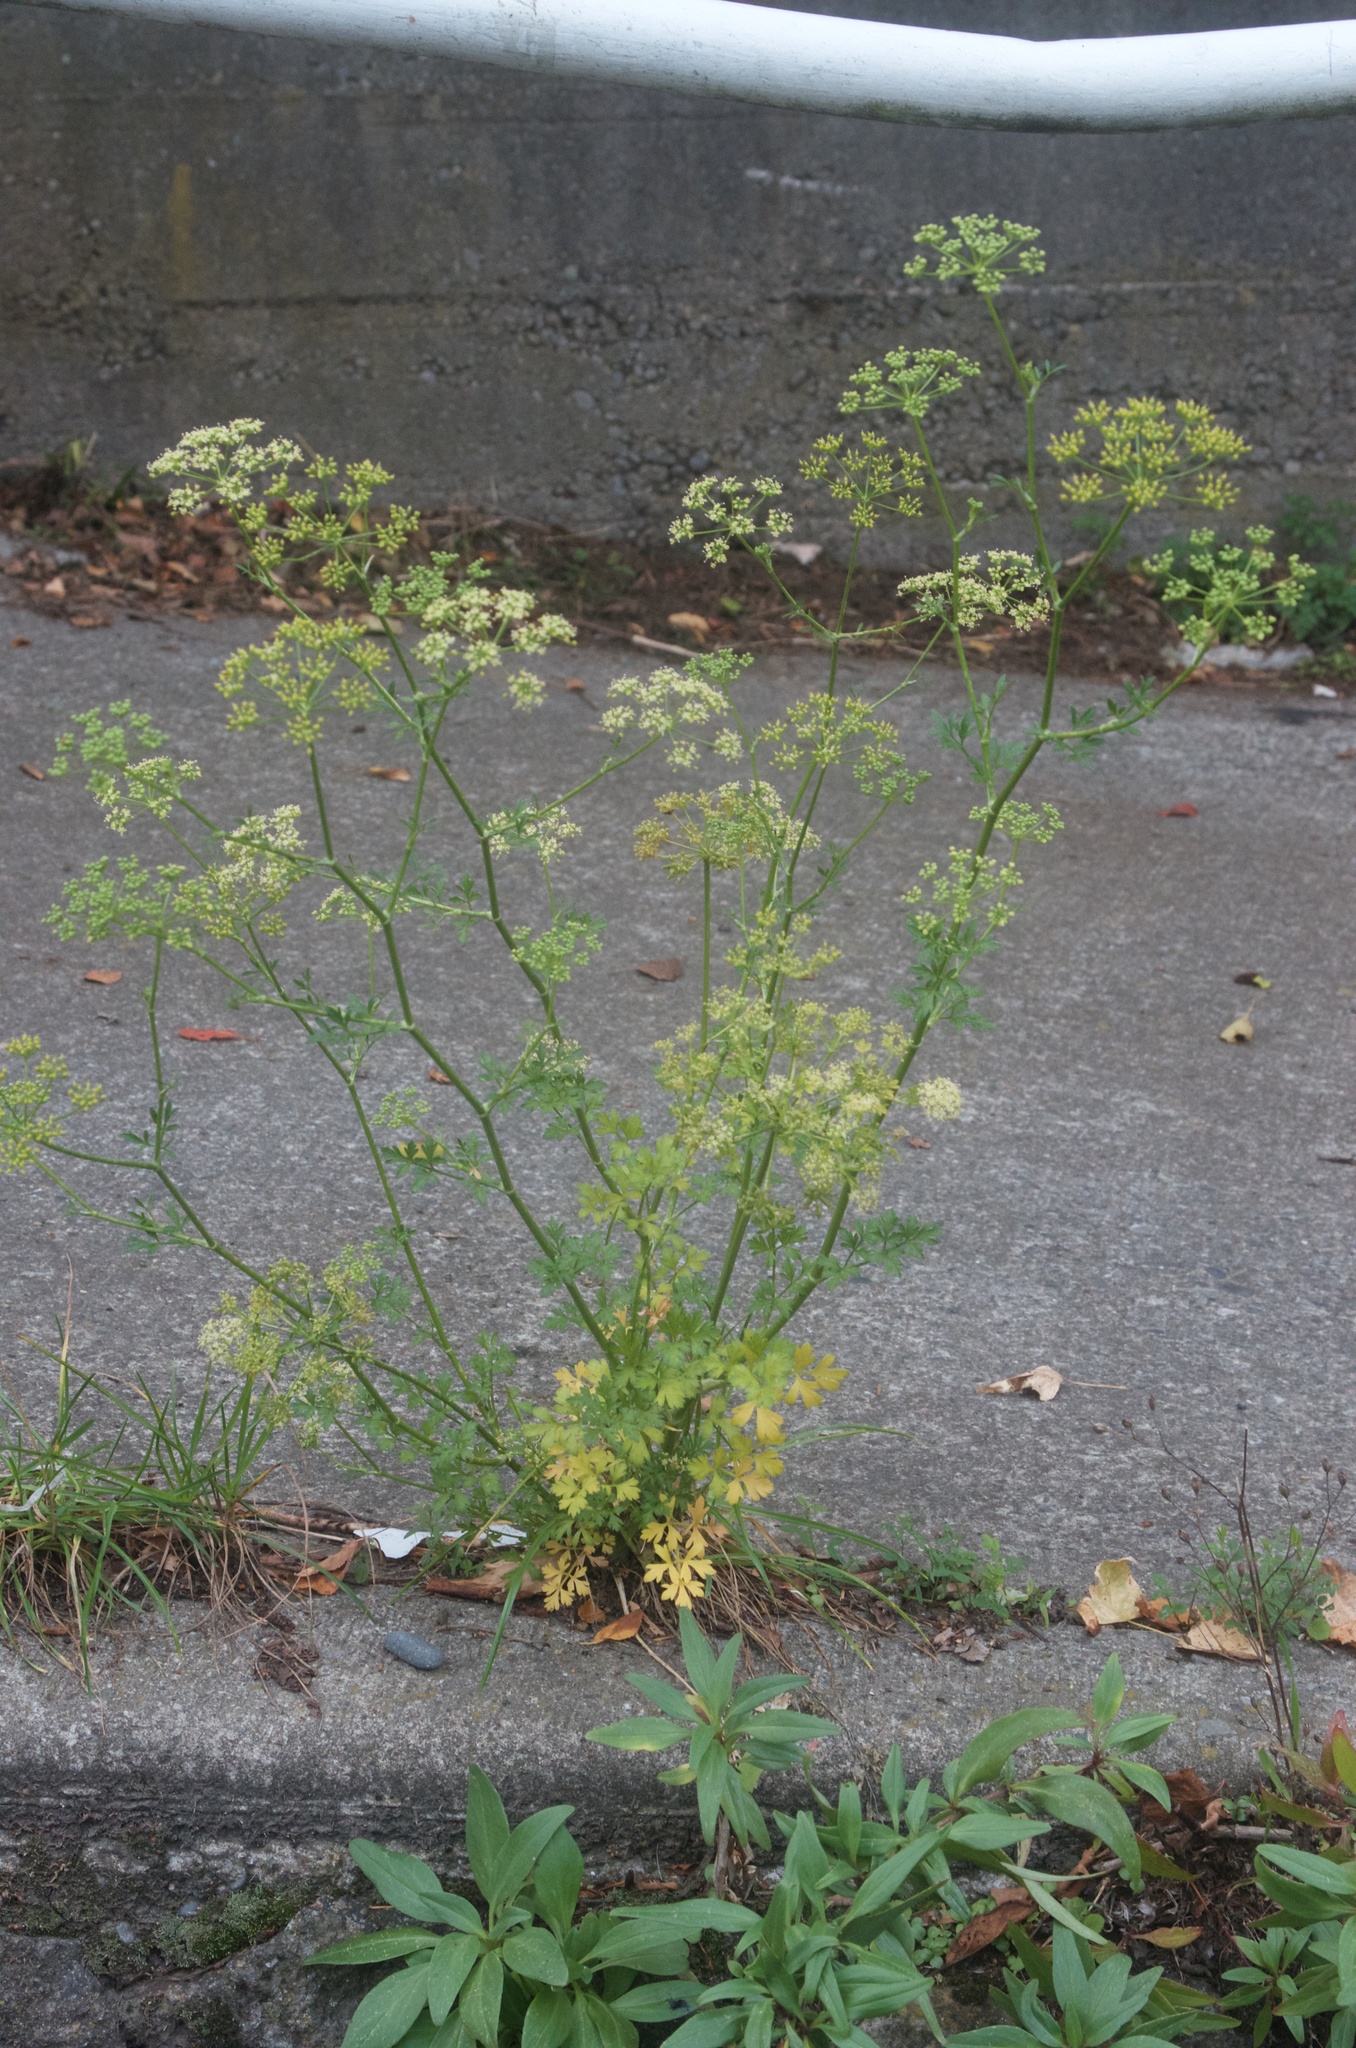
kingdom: Plantae
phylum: Tracheophyta
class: Magnoliopsida
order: Apiales
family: Apiaceae
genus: Petroselinum
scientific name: Petroselinum crispum
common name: Parsley
